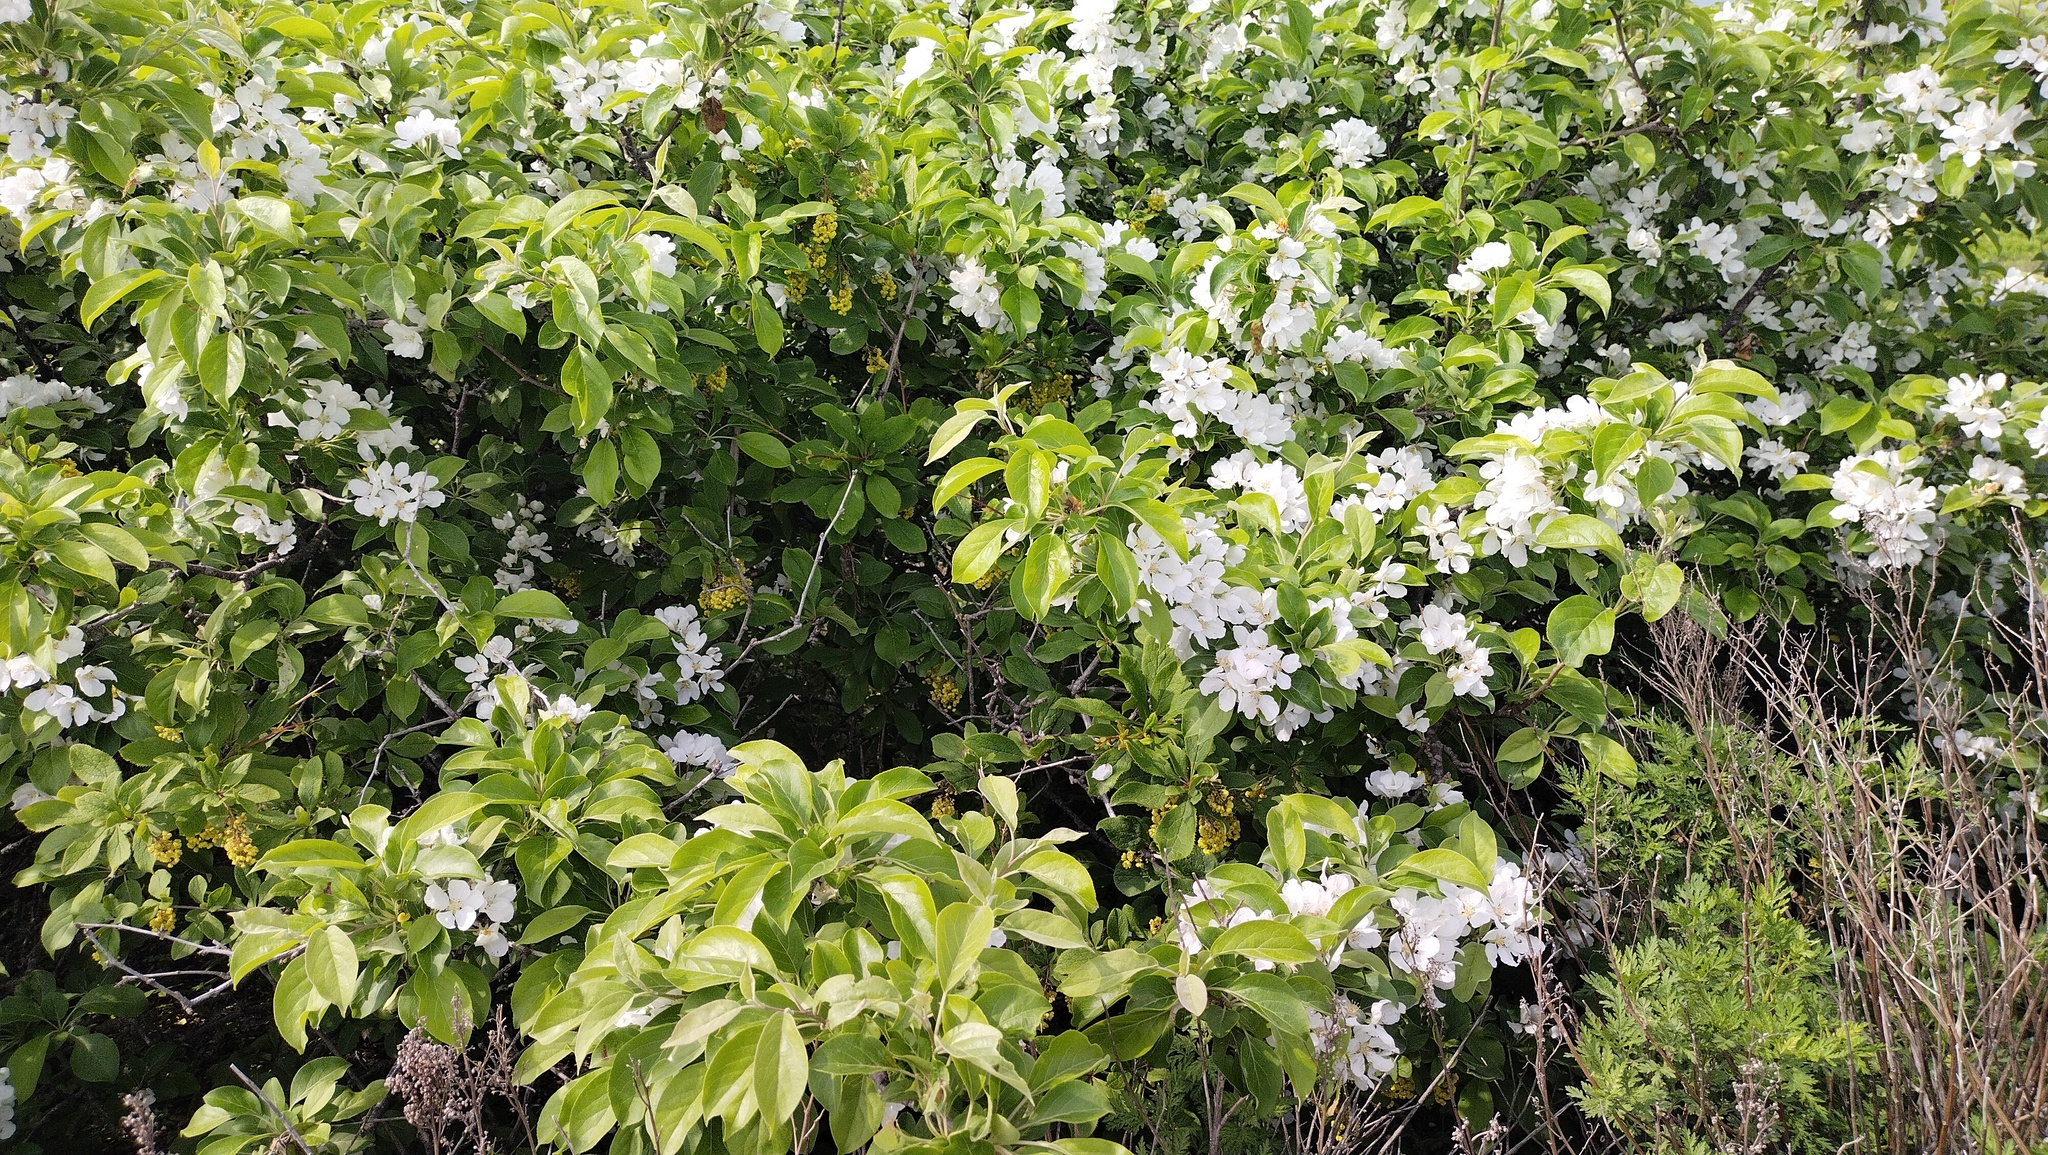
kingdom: Plantae
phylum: Tracheophyta
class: Magnoliopsida
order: Rosales
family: Rosaceae
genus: Malus
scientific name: Malus mandshurica
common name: Siberian crabapple
